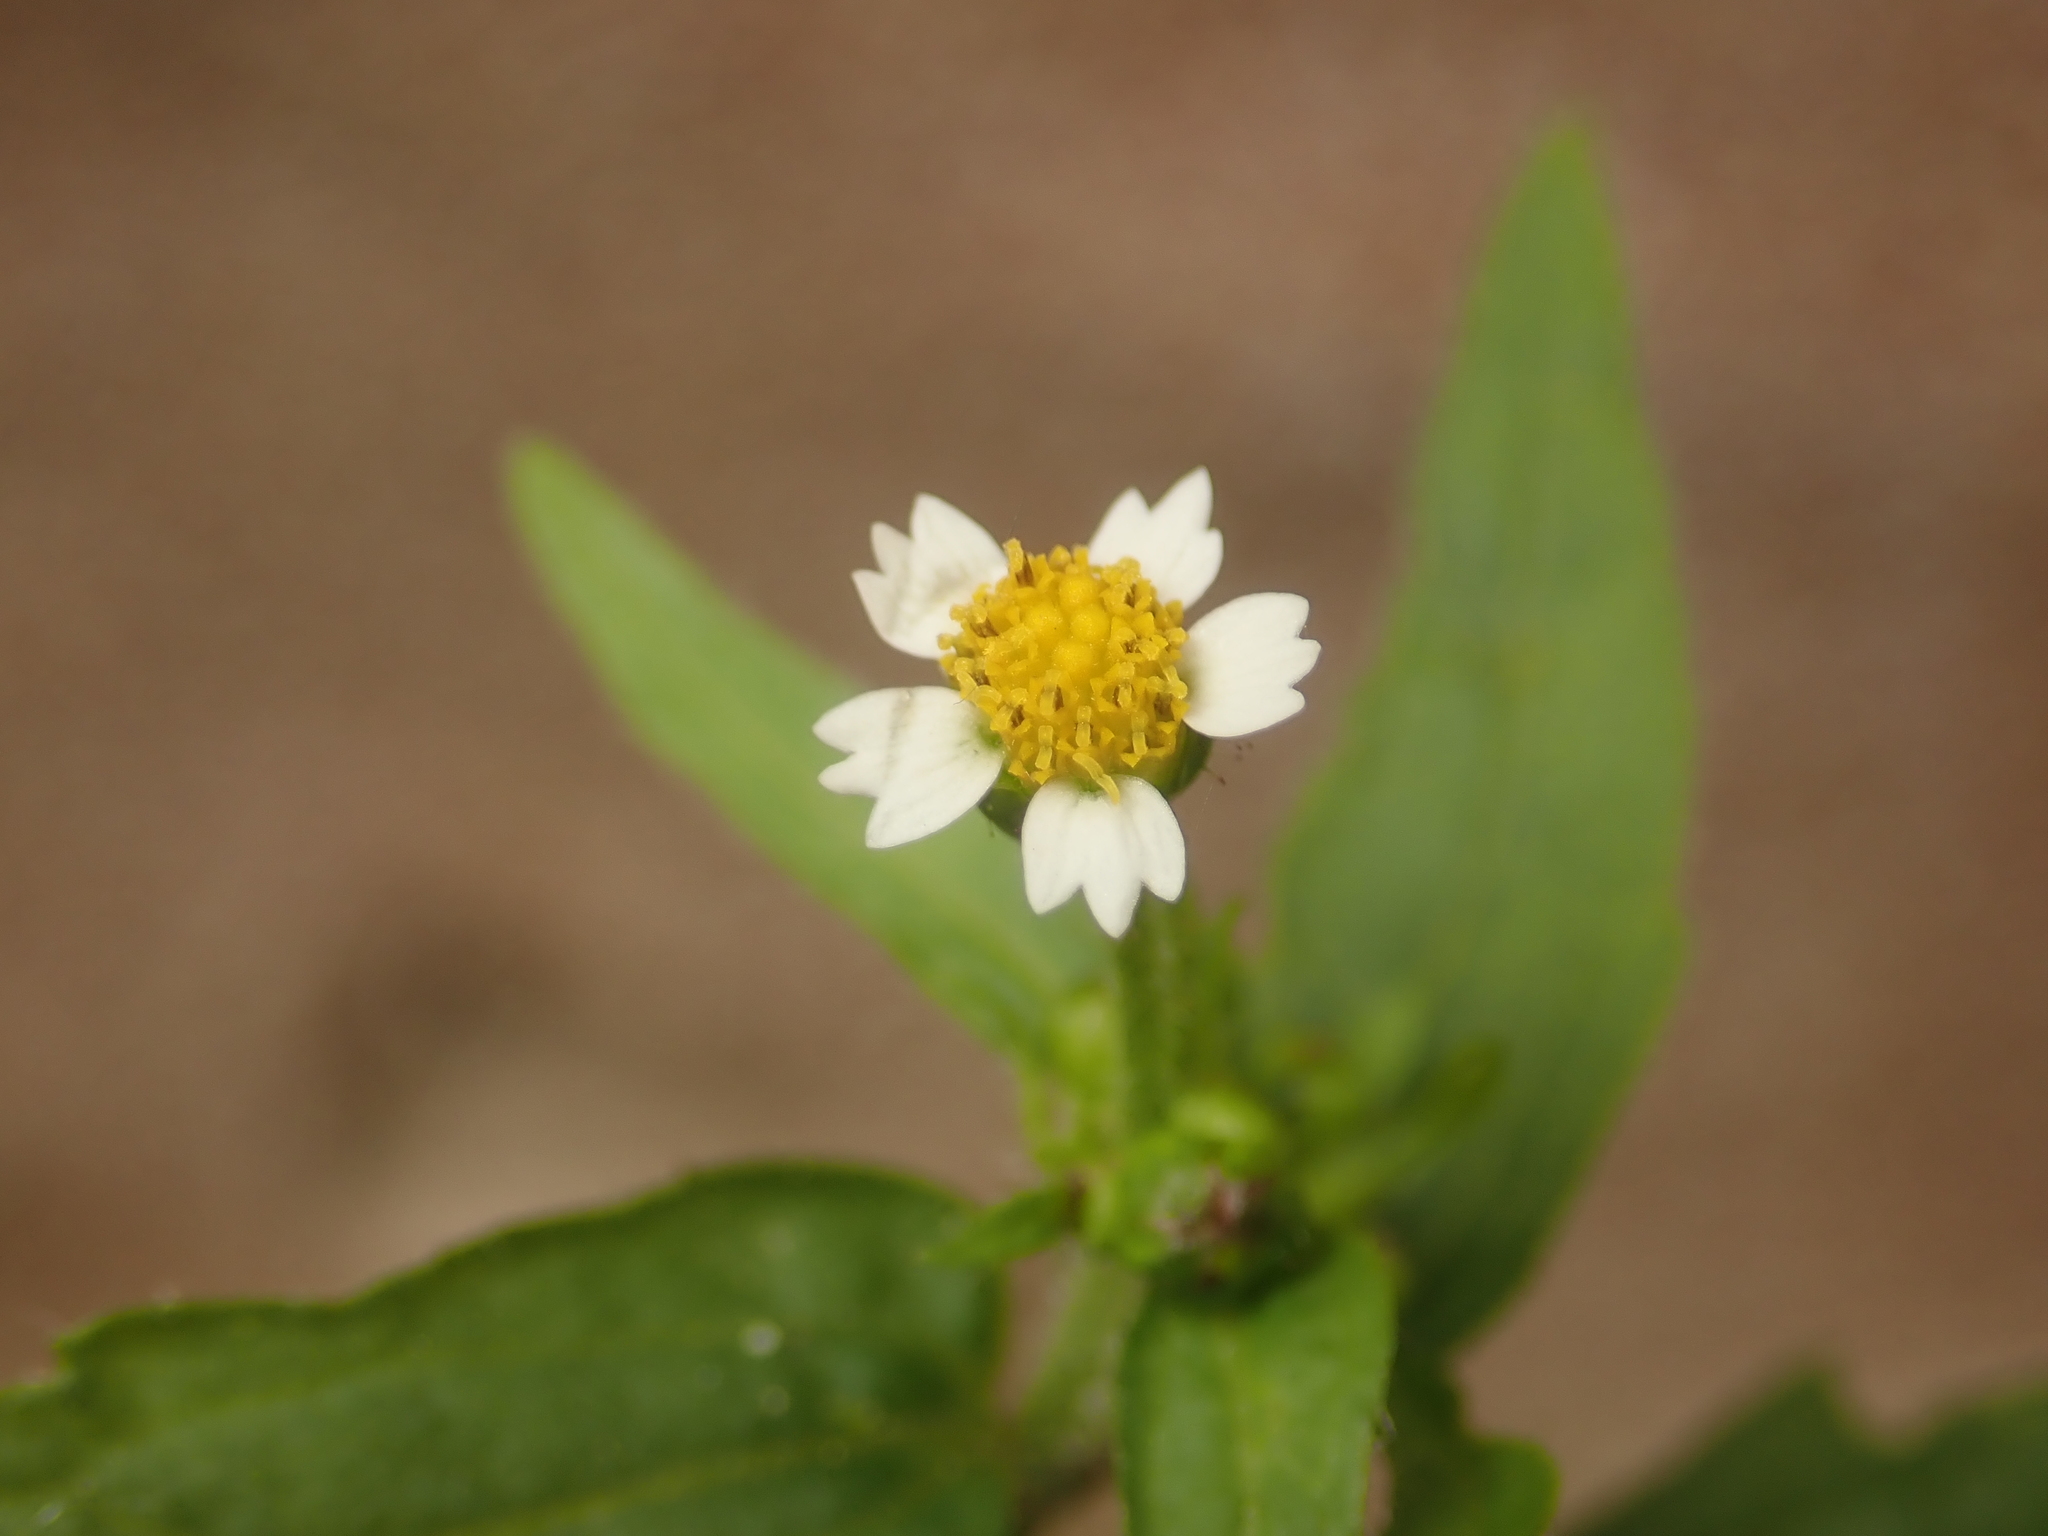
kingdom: Plantae
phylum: Tracheophyta
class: Magnoliopsida
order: Asterales
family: Asteraceae
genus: Galinsoga
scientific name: Galinsoga quadriradiata
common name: Shaggy soldier
